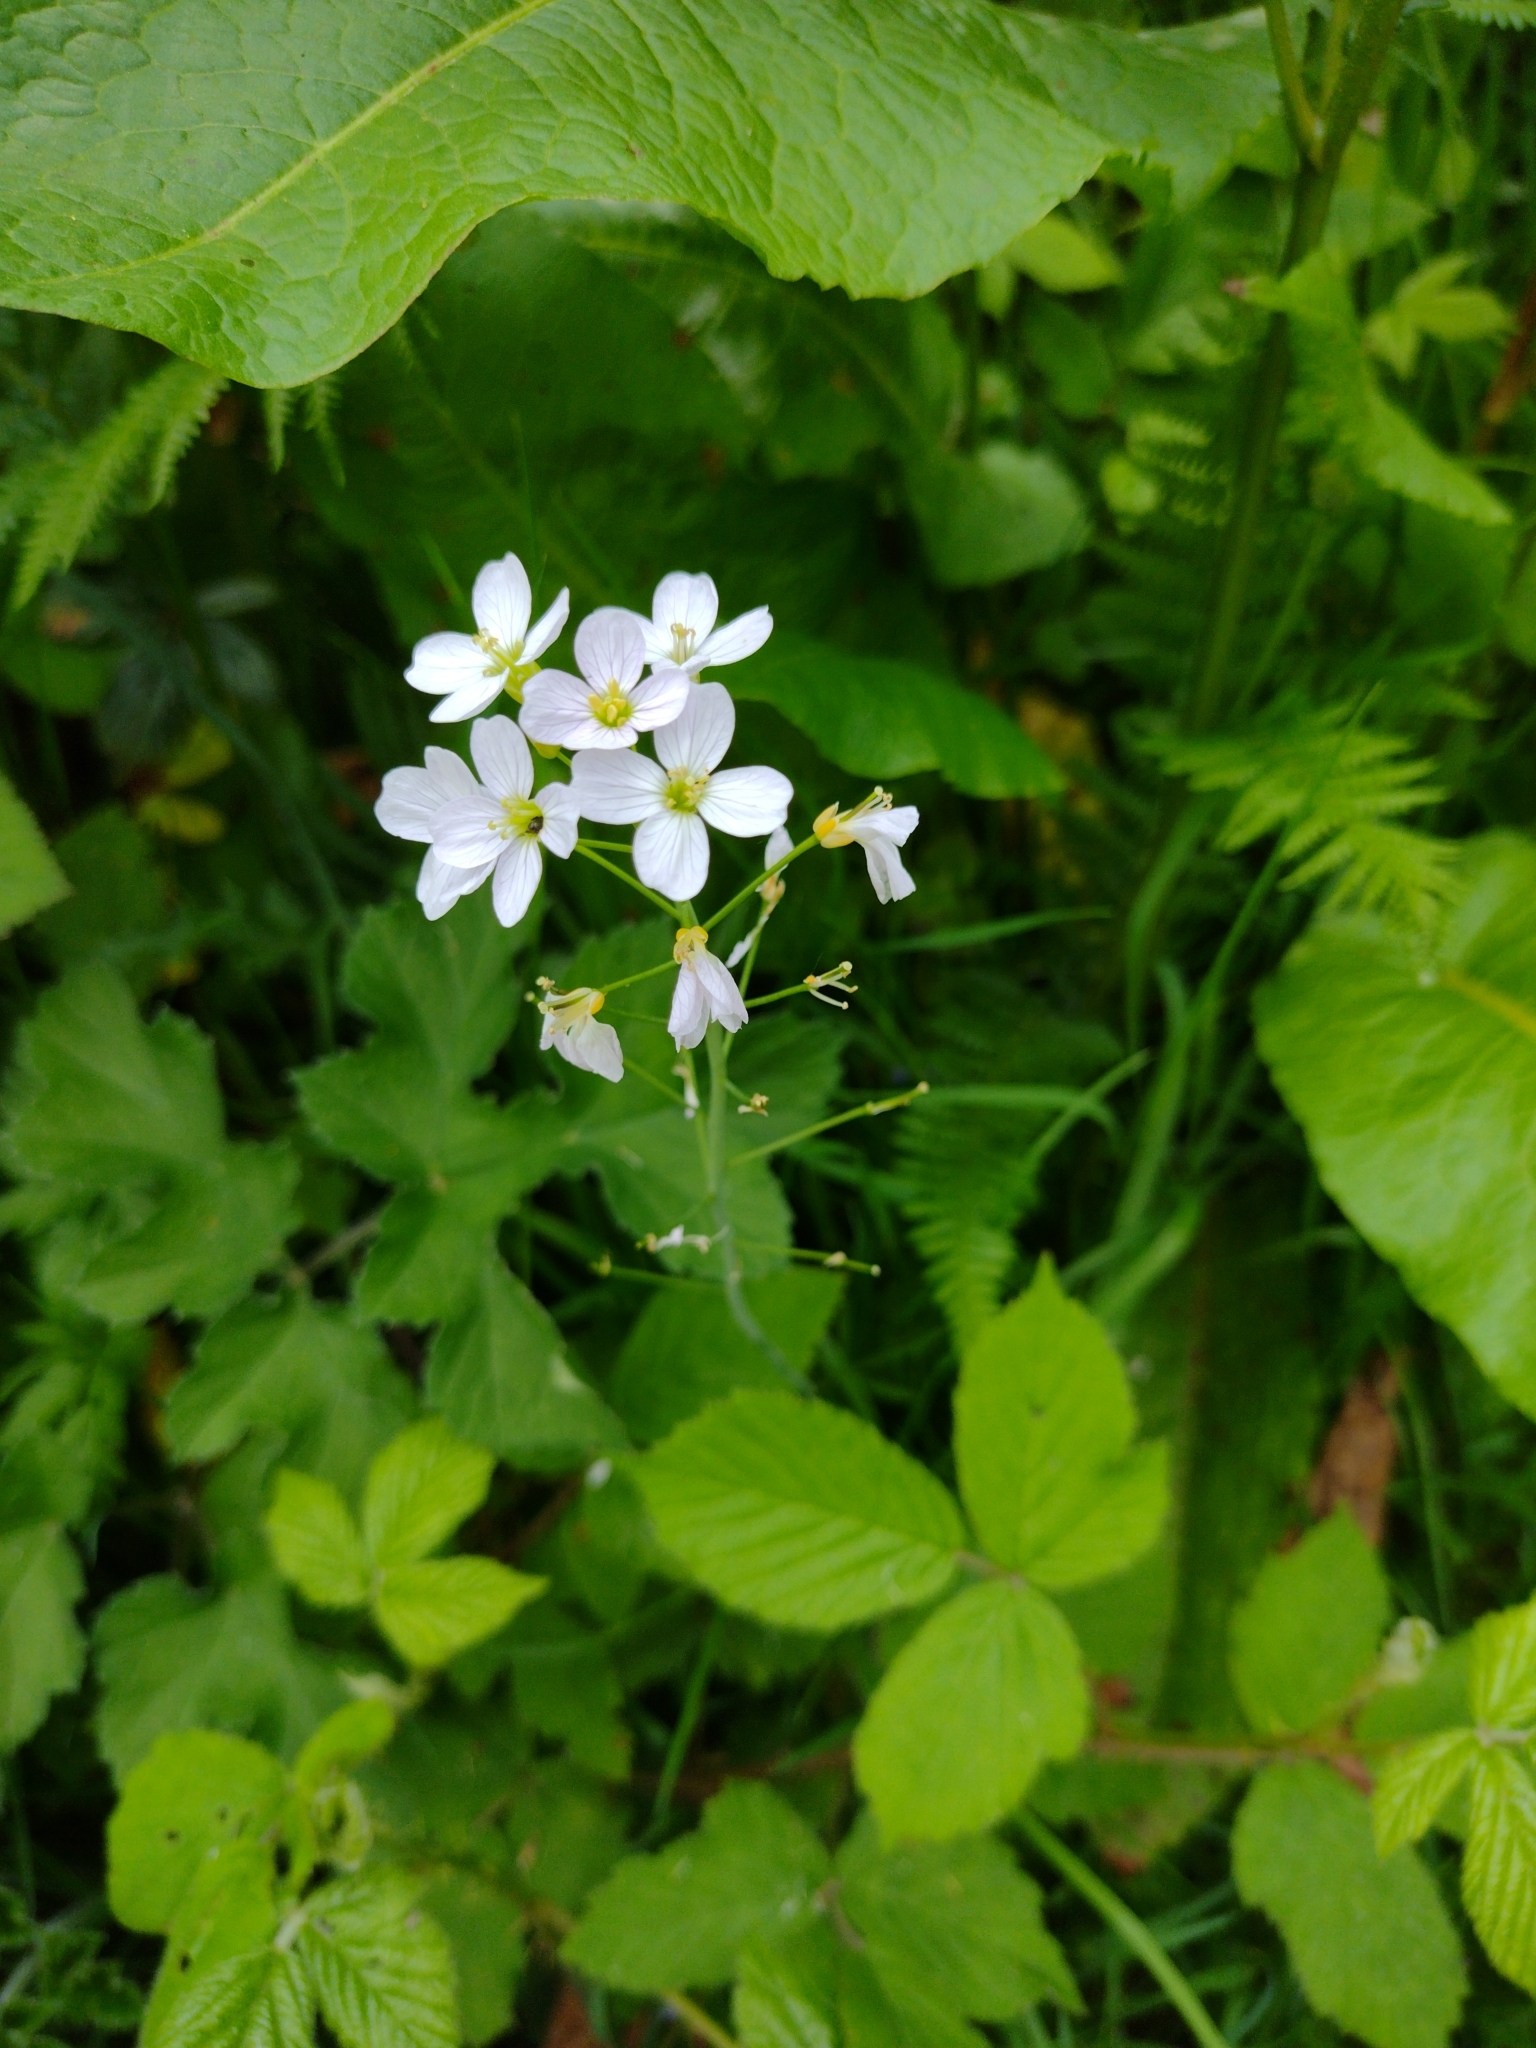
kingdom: Plantae
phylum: Tracheophyta
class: Magnoliopsida
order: Brassicales
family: Brassicaceae
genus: Cardamine
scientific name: Cardamine pratensis
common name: Cuckoo flower
